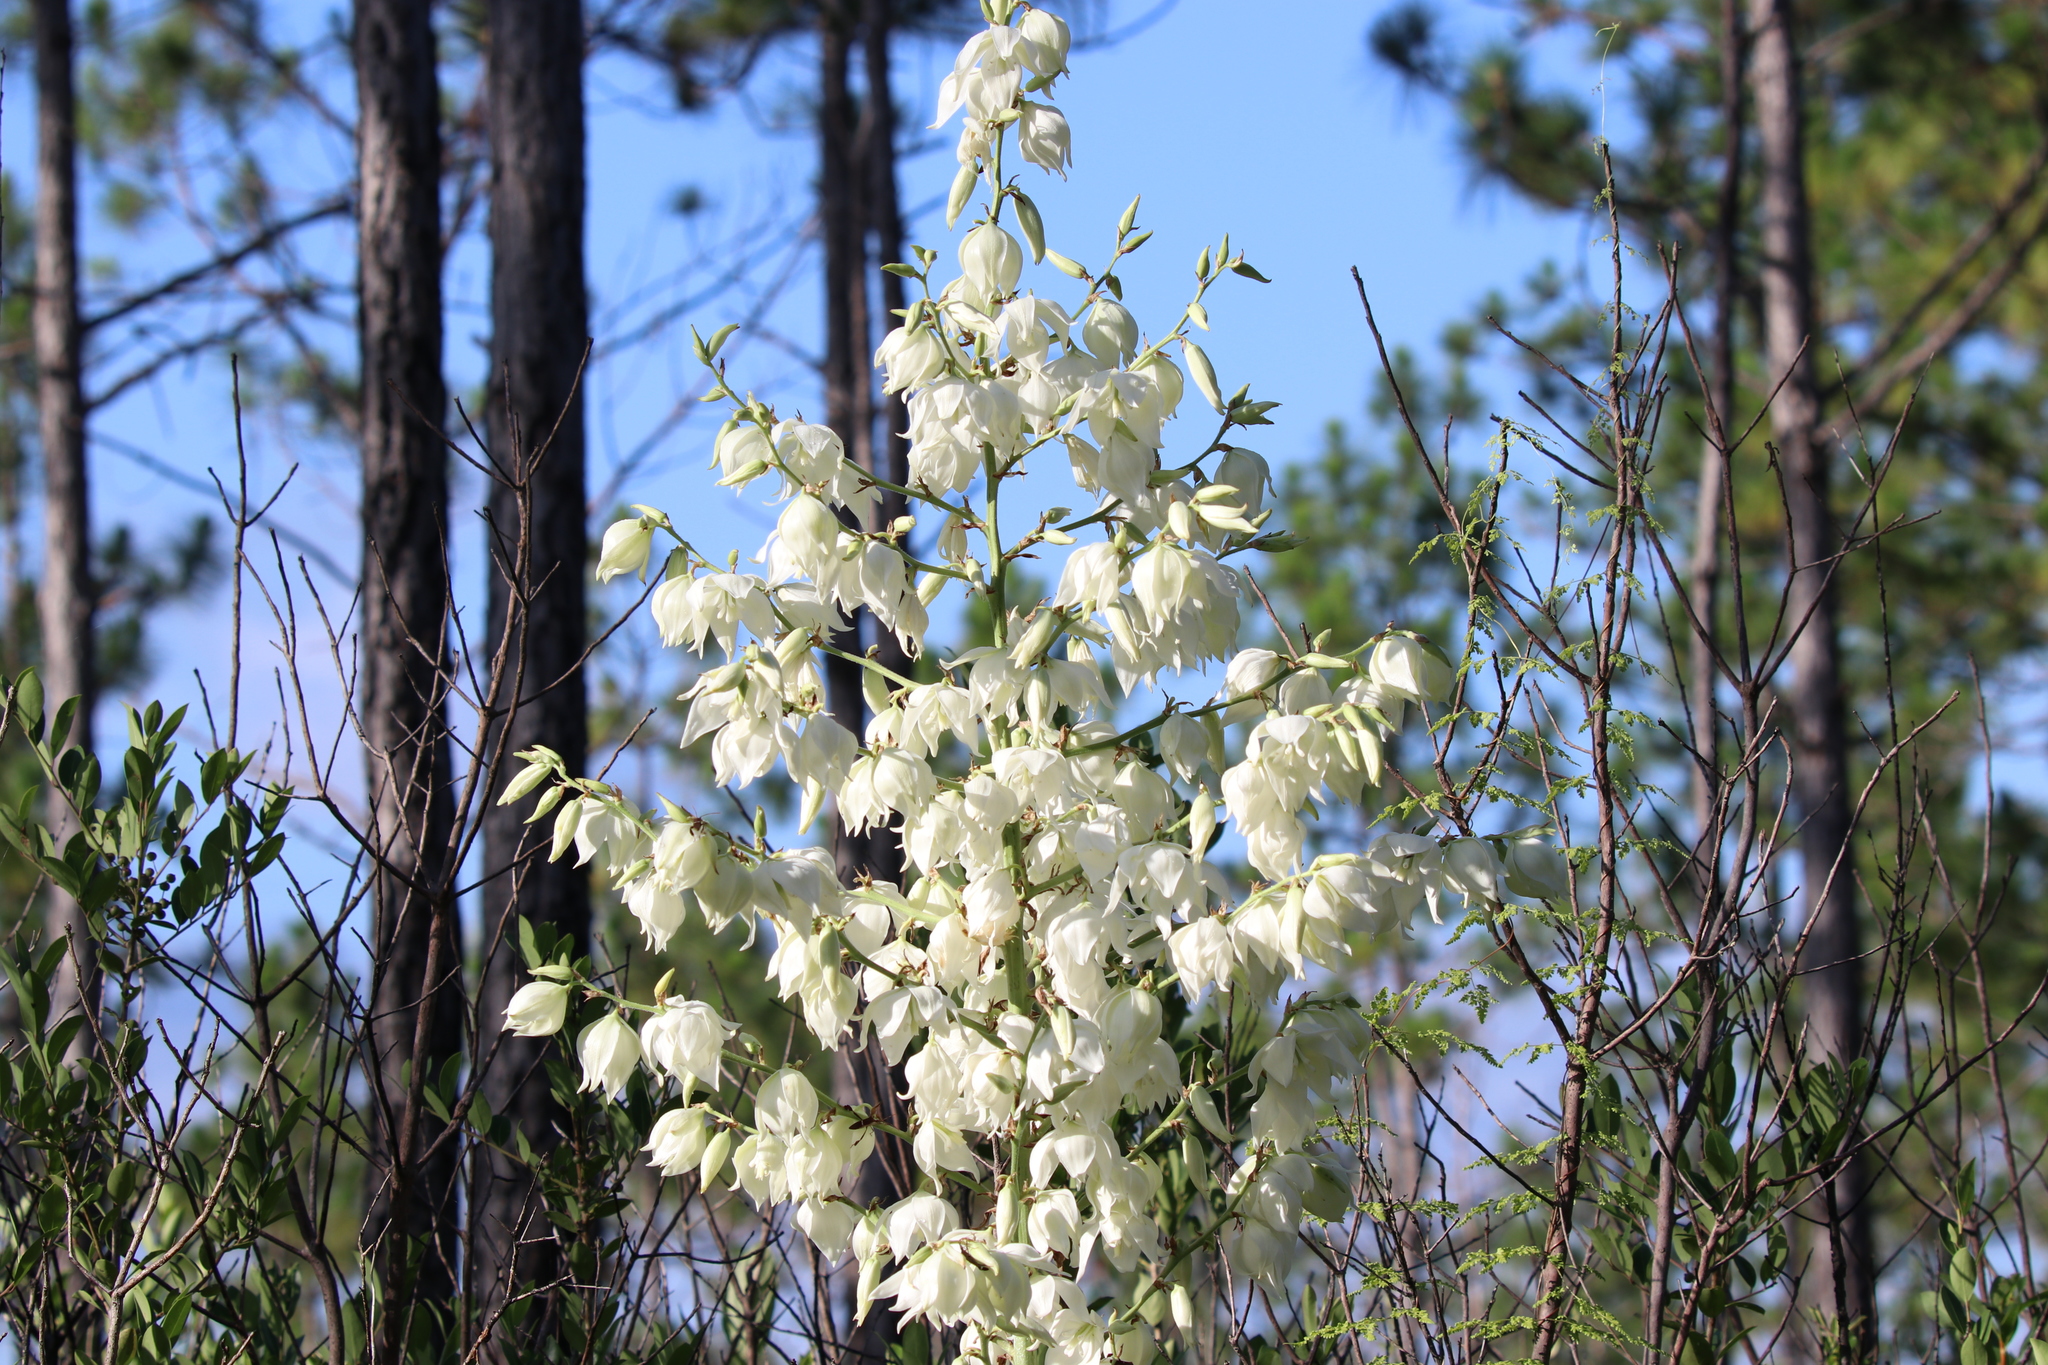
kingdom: Plantae
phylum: Tracheophyta
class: Liliopsida
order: Asparagales
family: Asparagaceae
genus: Yucca
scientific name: Yucca filamentosa
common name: Adam's-needle
